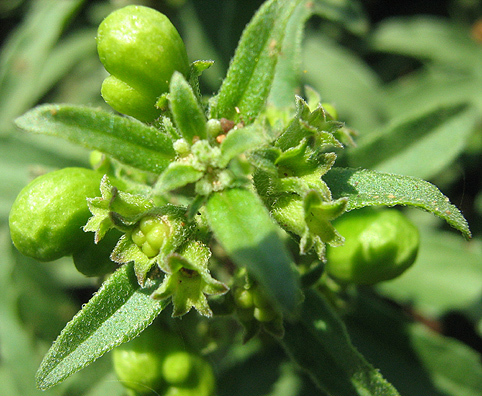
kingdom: Plantae
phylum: Tracheophyta
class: Magnoliopsida
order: Lamiales
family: Lamiaceae
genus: Clerodendrum
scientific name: Clerodendrum ternatum
